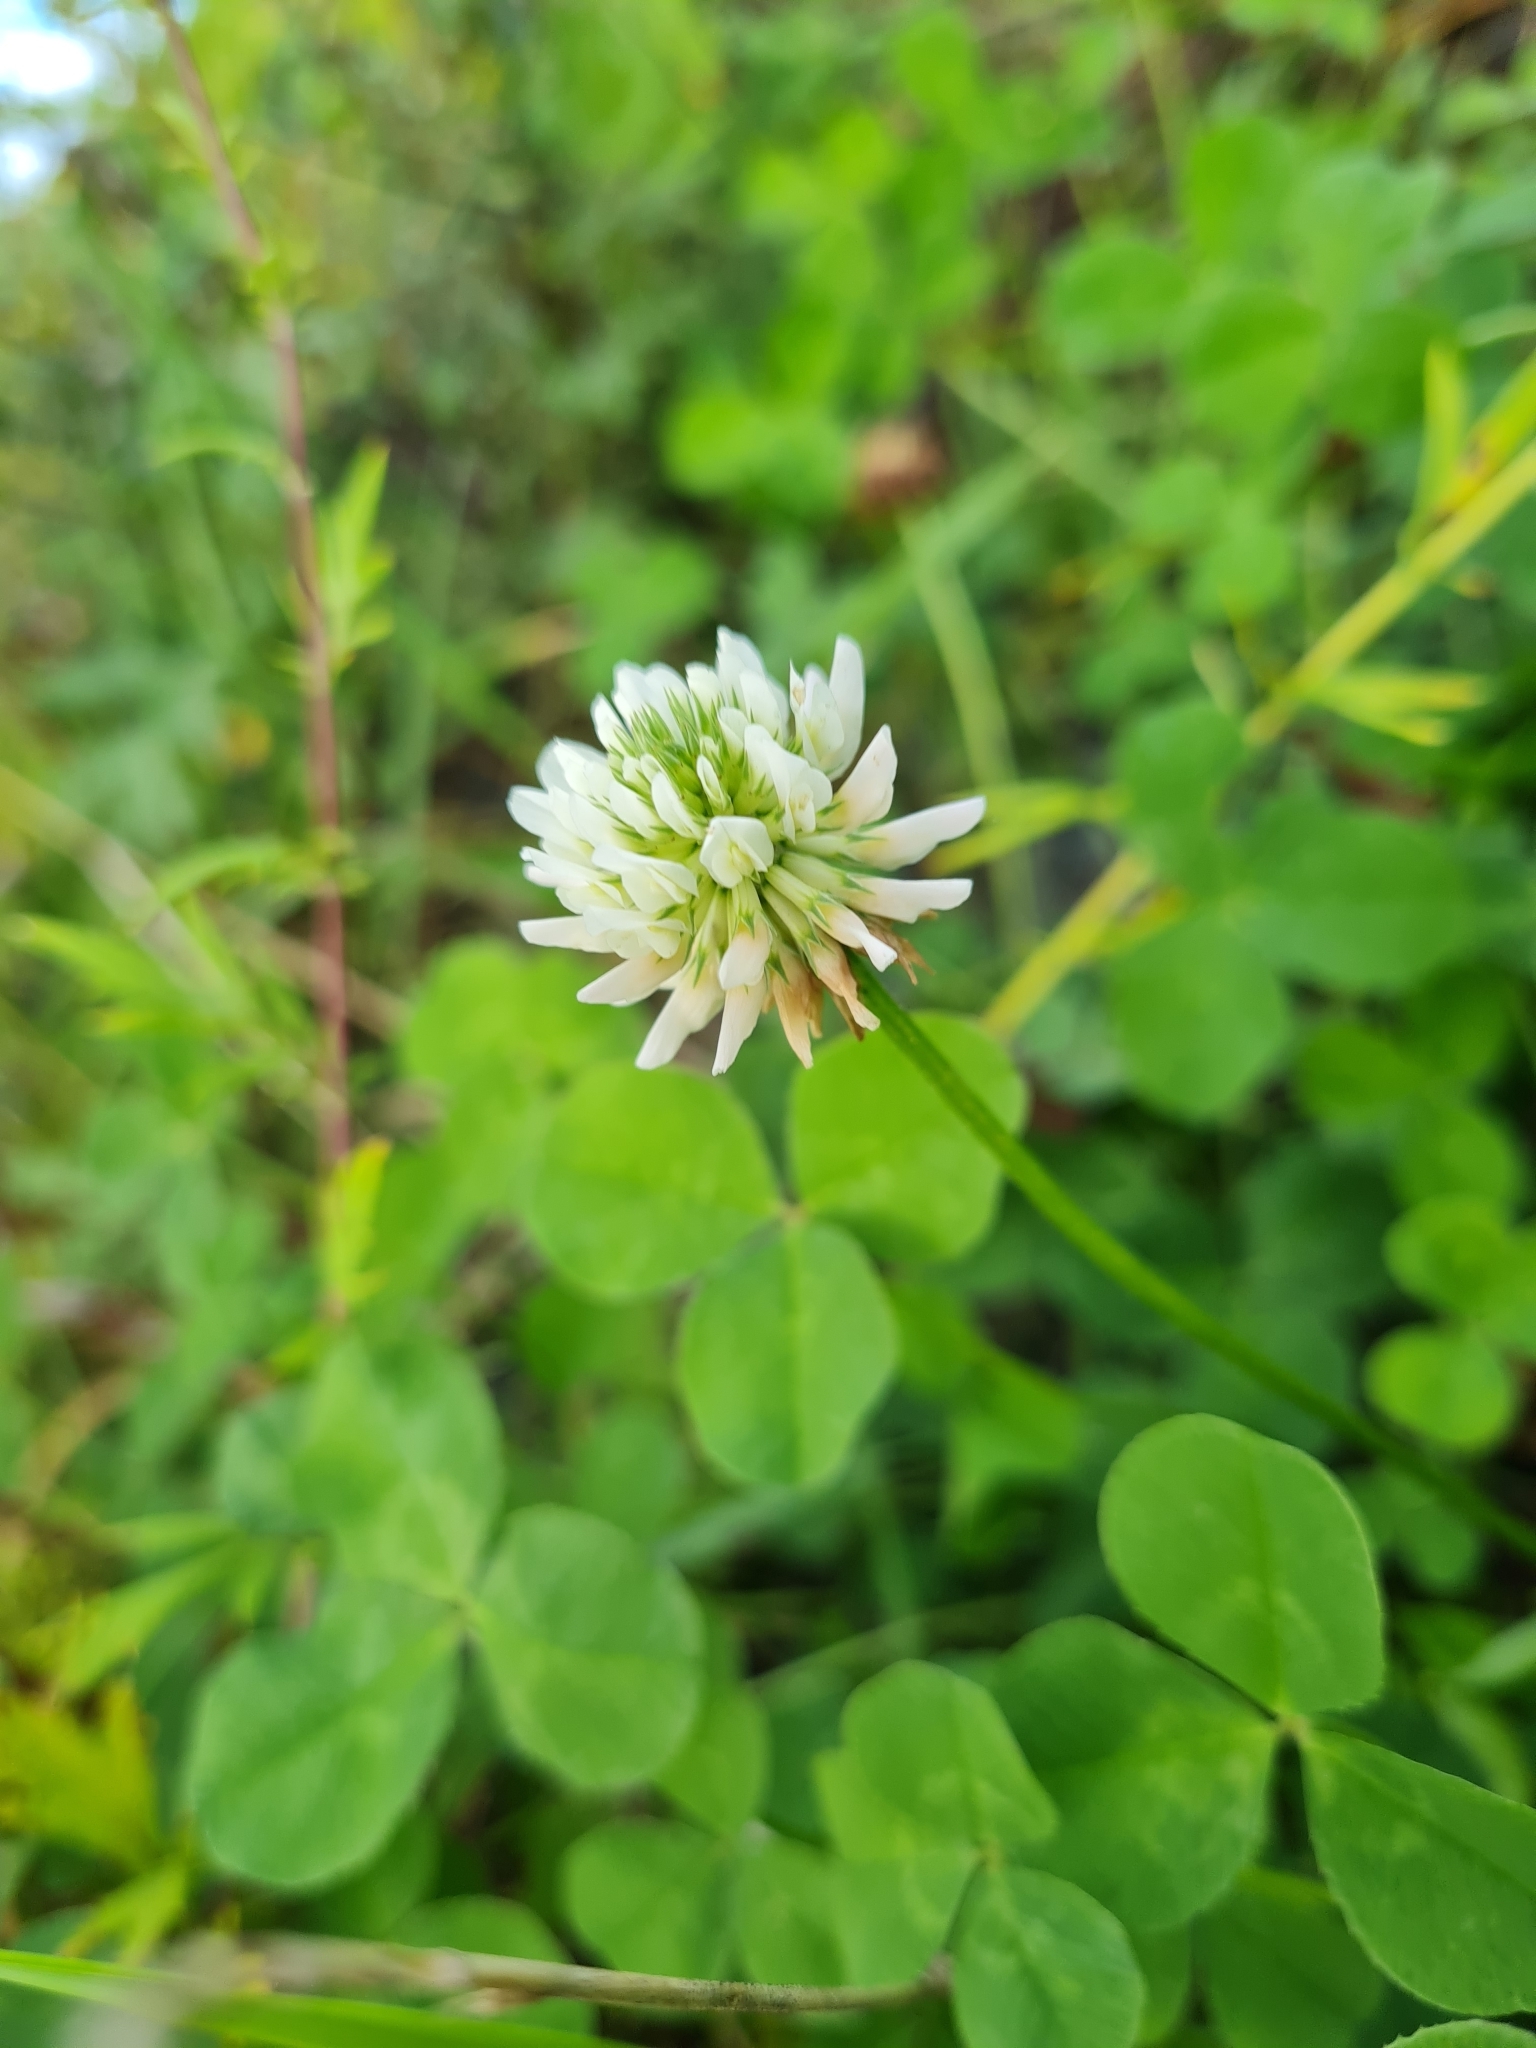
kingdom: Plantae
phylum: Tracheophyta
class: Magnoliopsida
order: Fabales
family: Fabaceae
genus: Trifolium
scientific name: Trifolium repens
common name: White clover
